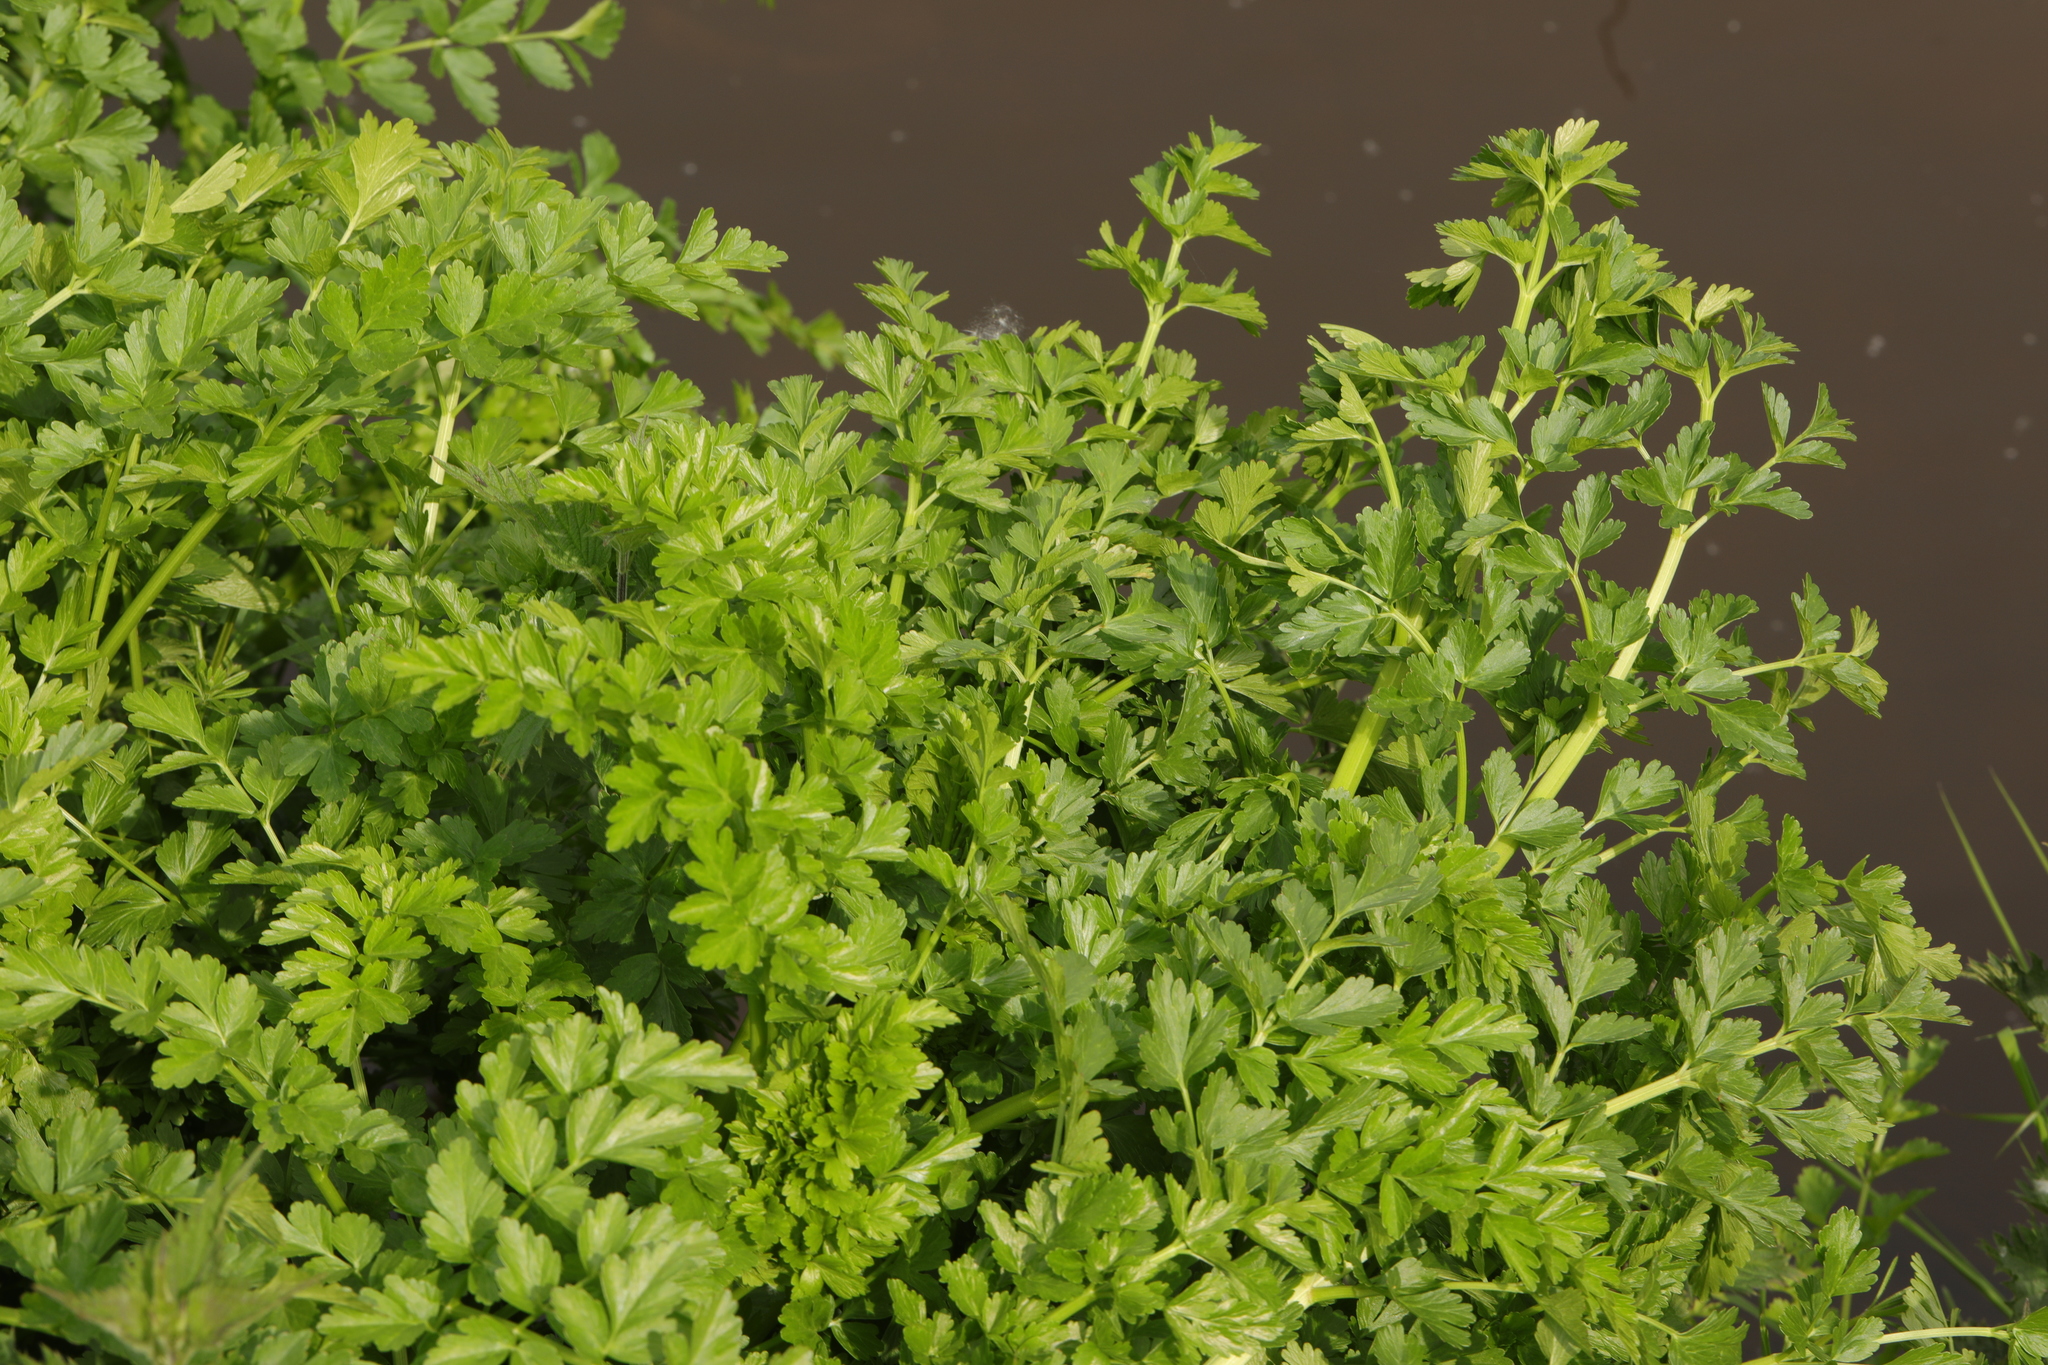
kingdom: Plantae
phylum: Tracheophyta
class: Magnoliopsida
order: Apiales
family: Apiaceae
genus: Oenanthe
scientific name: Oenanthe crocata
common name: Hemlock water-dropwort
